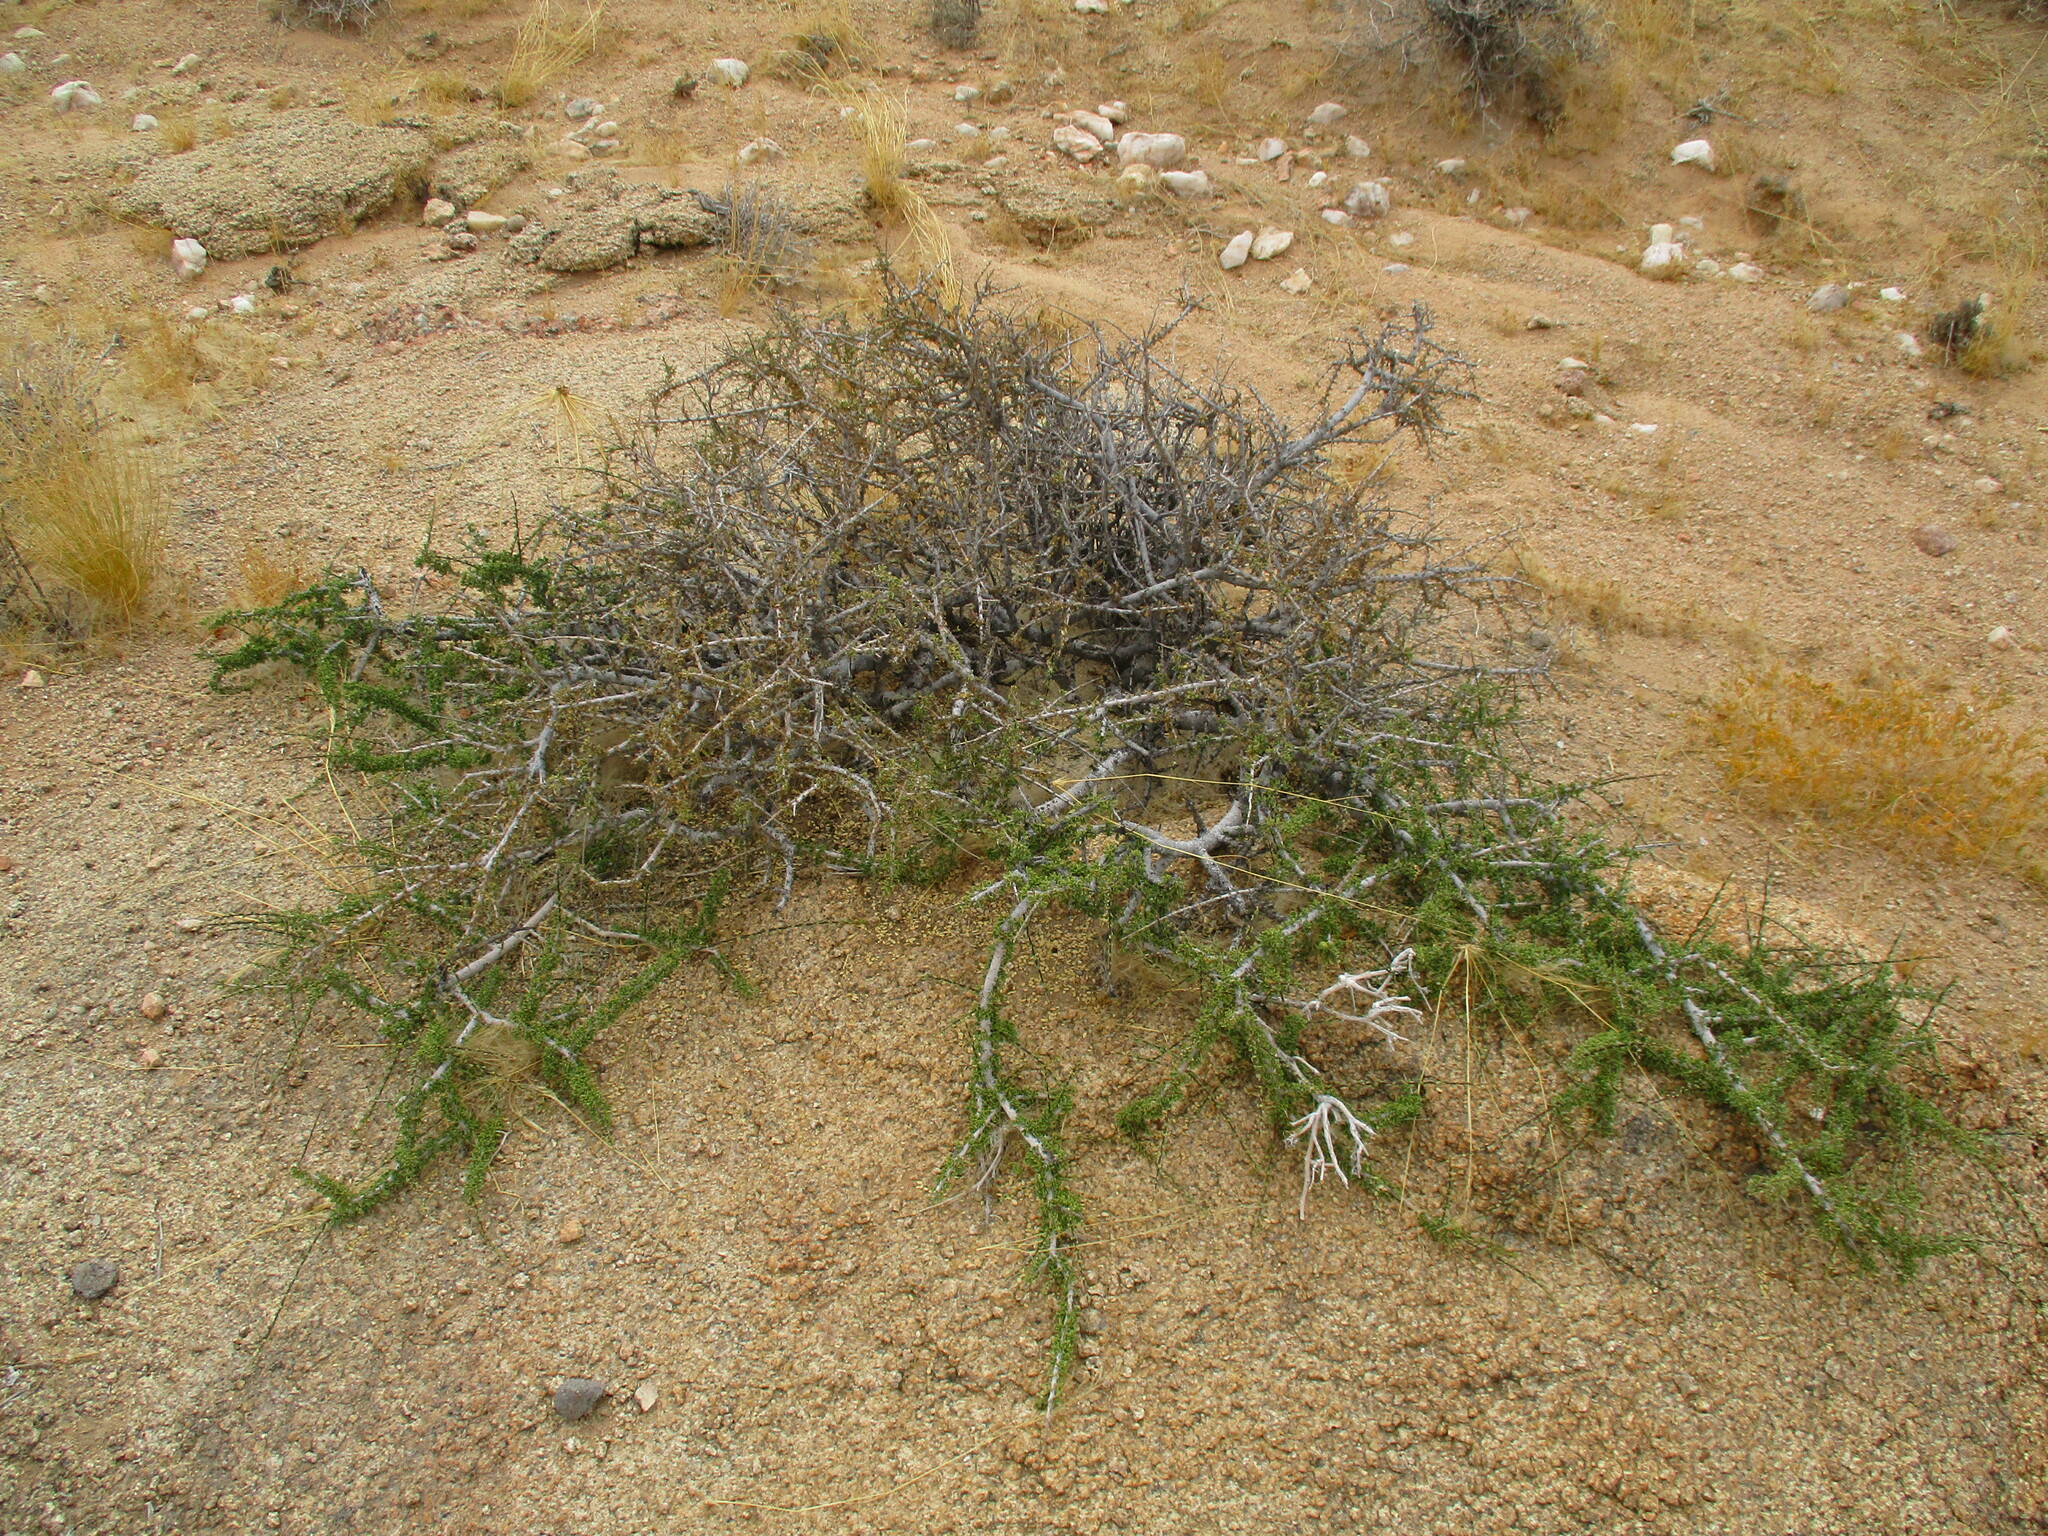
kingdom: Plantae
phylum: Tracheophyta
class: Magnoliopsida
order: Brassicales
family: Capparaceae
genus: Boscia
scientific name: Boscia foetida
